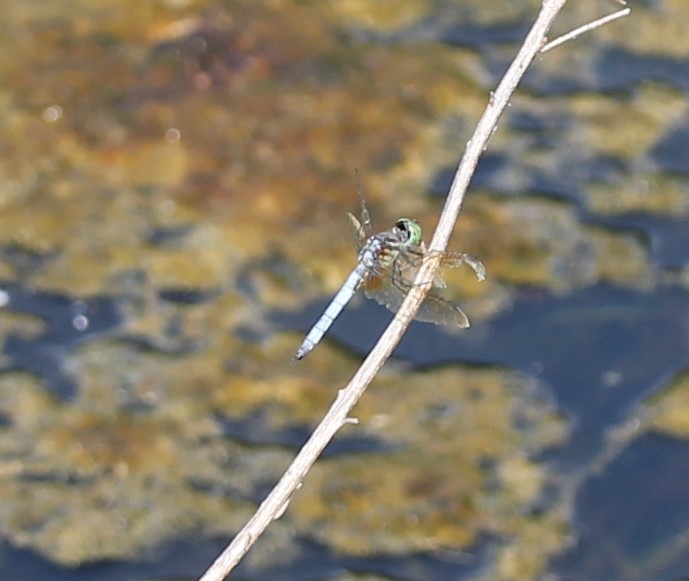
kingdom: Animalia
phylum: Arthropoda
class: Insecta
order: Odonata
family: Libellulidae
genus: Pachydiplax
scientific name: Pachydiplax longipennis
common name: Blue dasher
